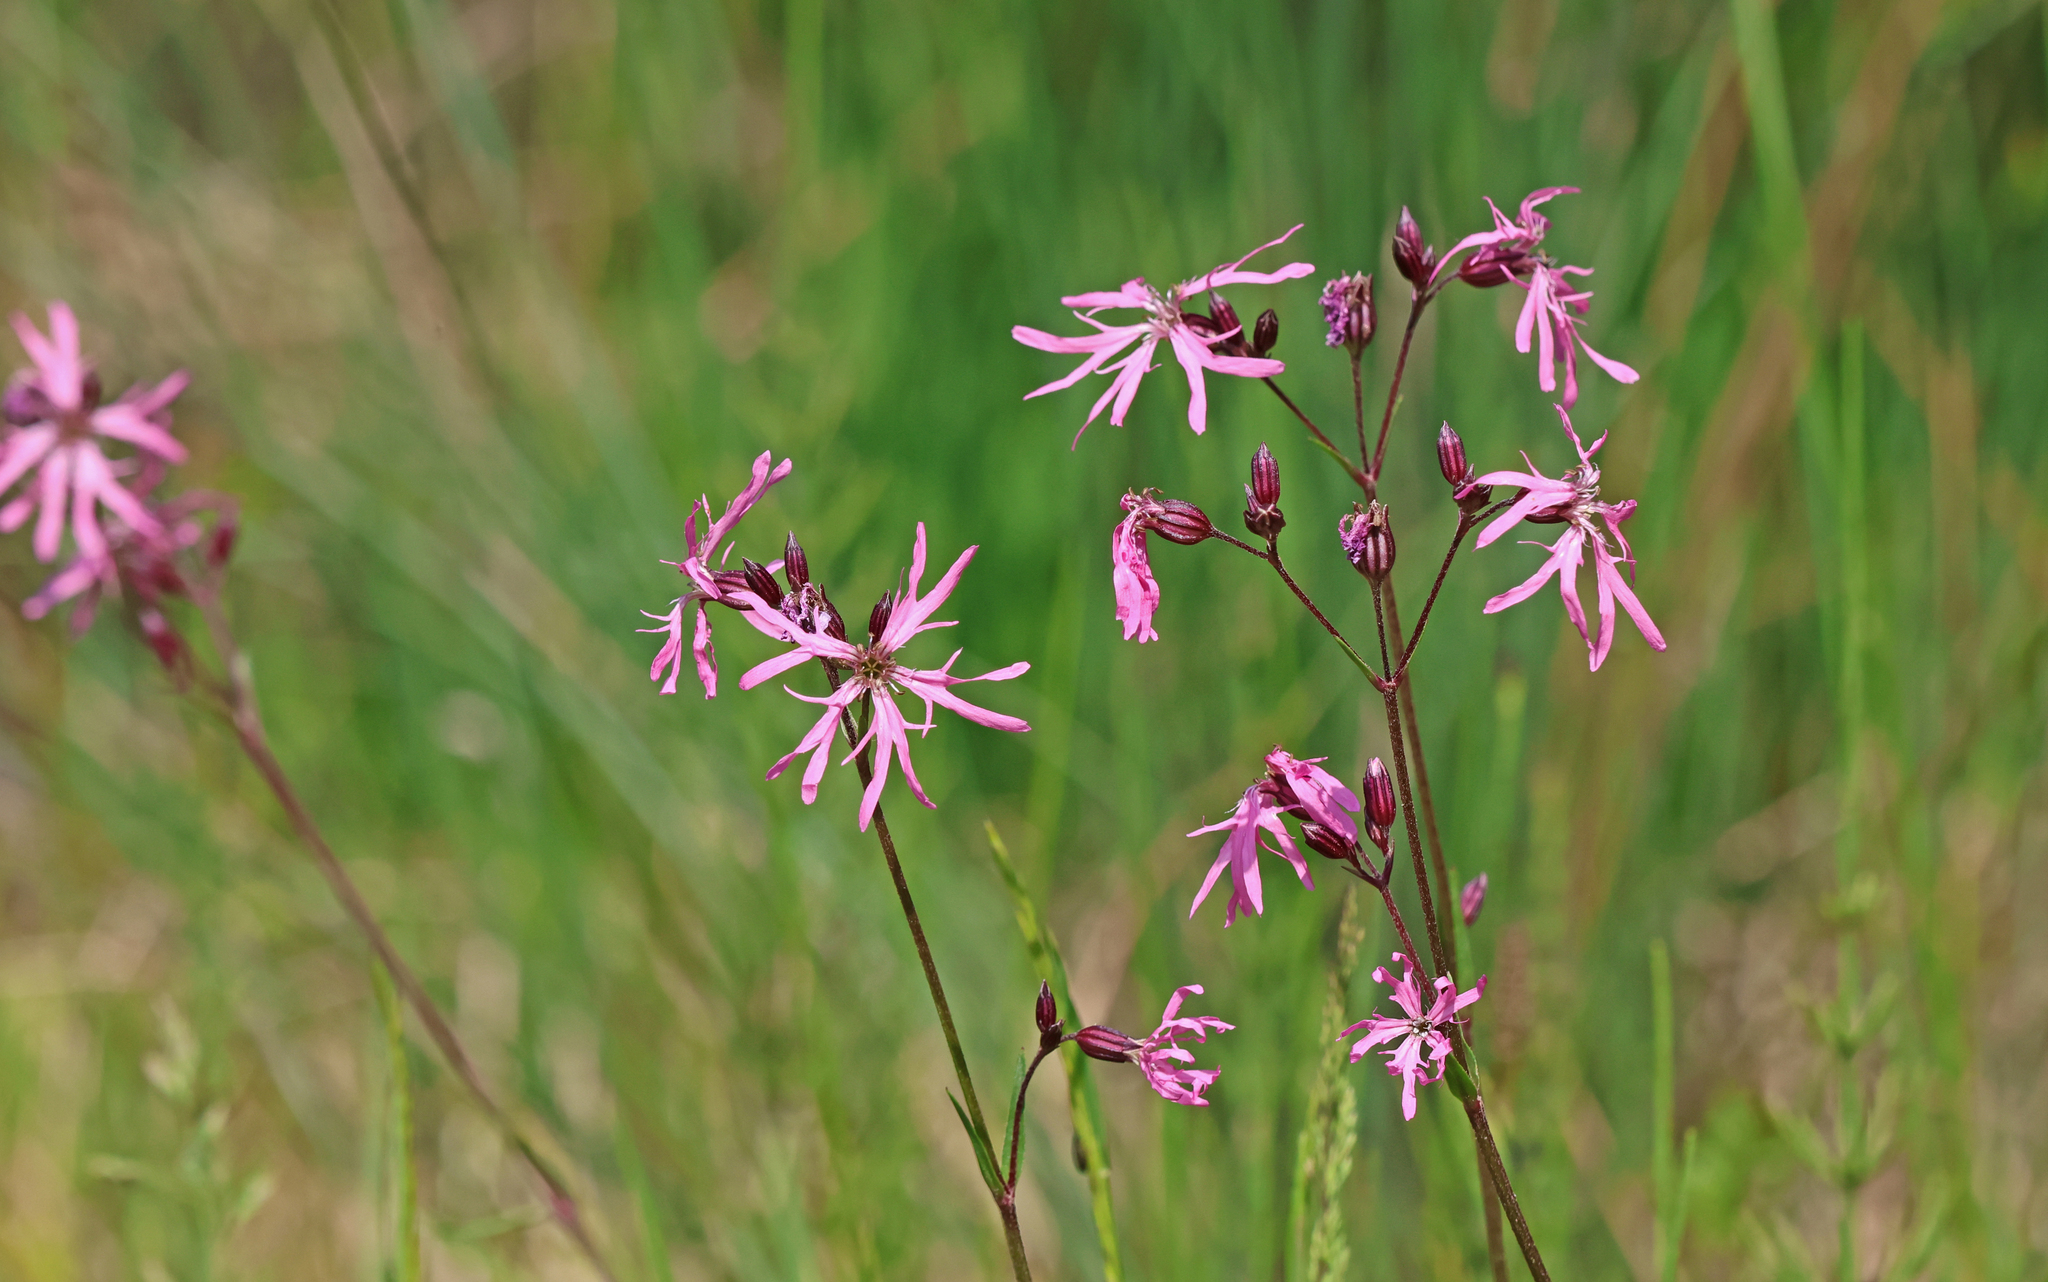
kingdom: Plantae
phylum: Tracheophyta
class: Magnoliopsida
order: Caryophyllales
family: Caryophyllaceae
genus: Silene
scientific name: Silene flos-cuculi
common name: Ragged-robin
